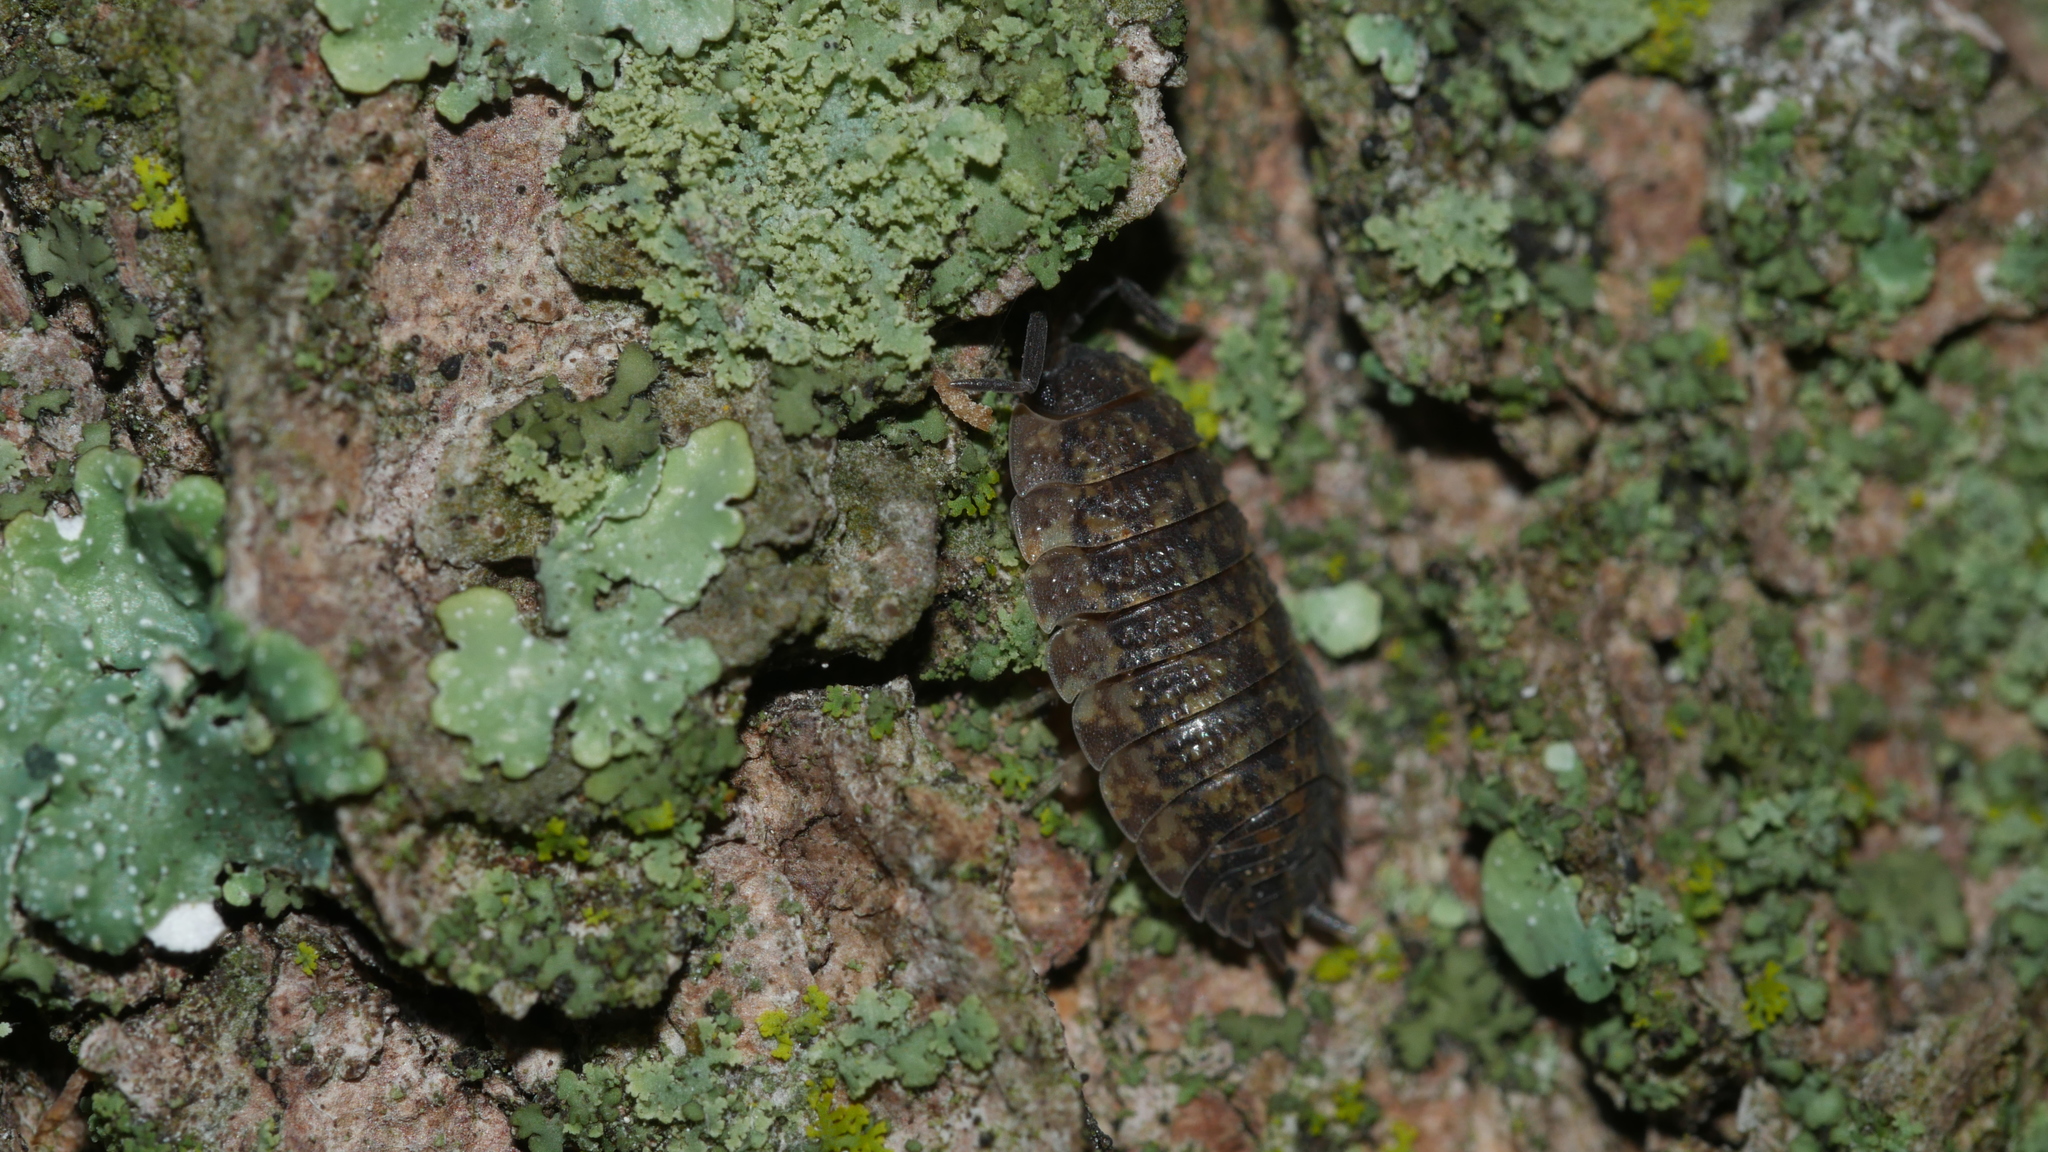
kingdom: Animalia
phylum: Arthropoda
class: Malacostraca
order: Isopoda
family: Porcellionidae
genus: Porcellio
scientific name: Porcellio scaber
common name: Common rough woodlouse
